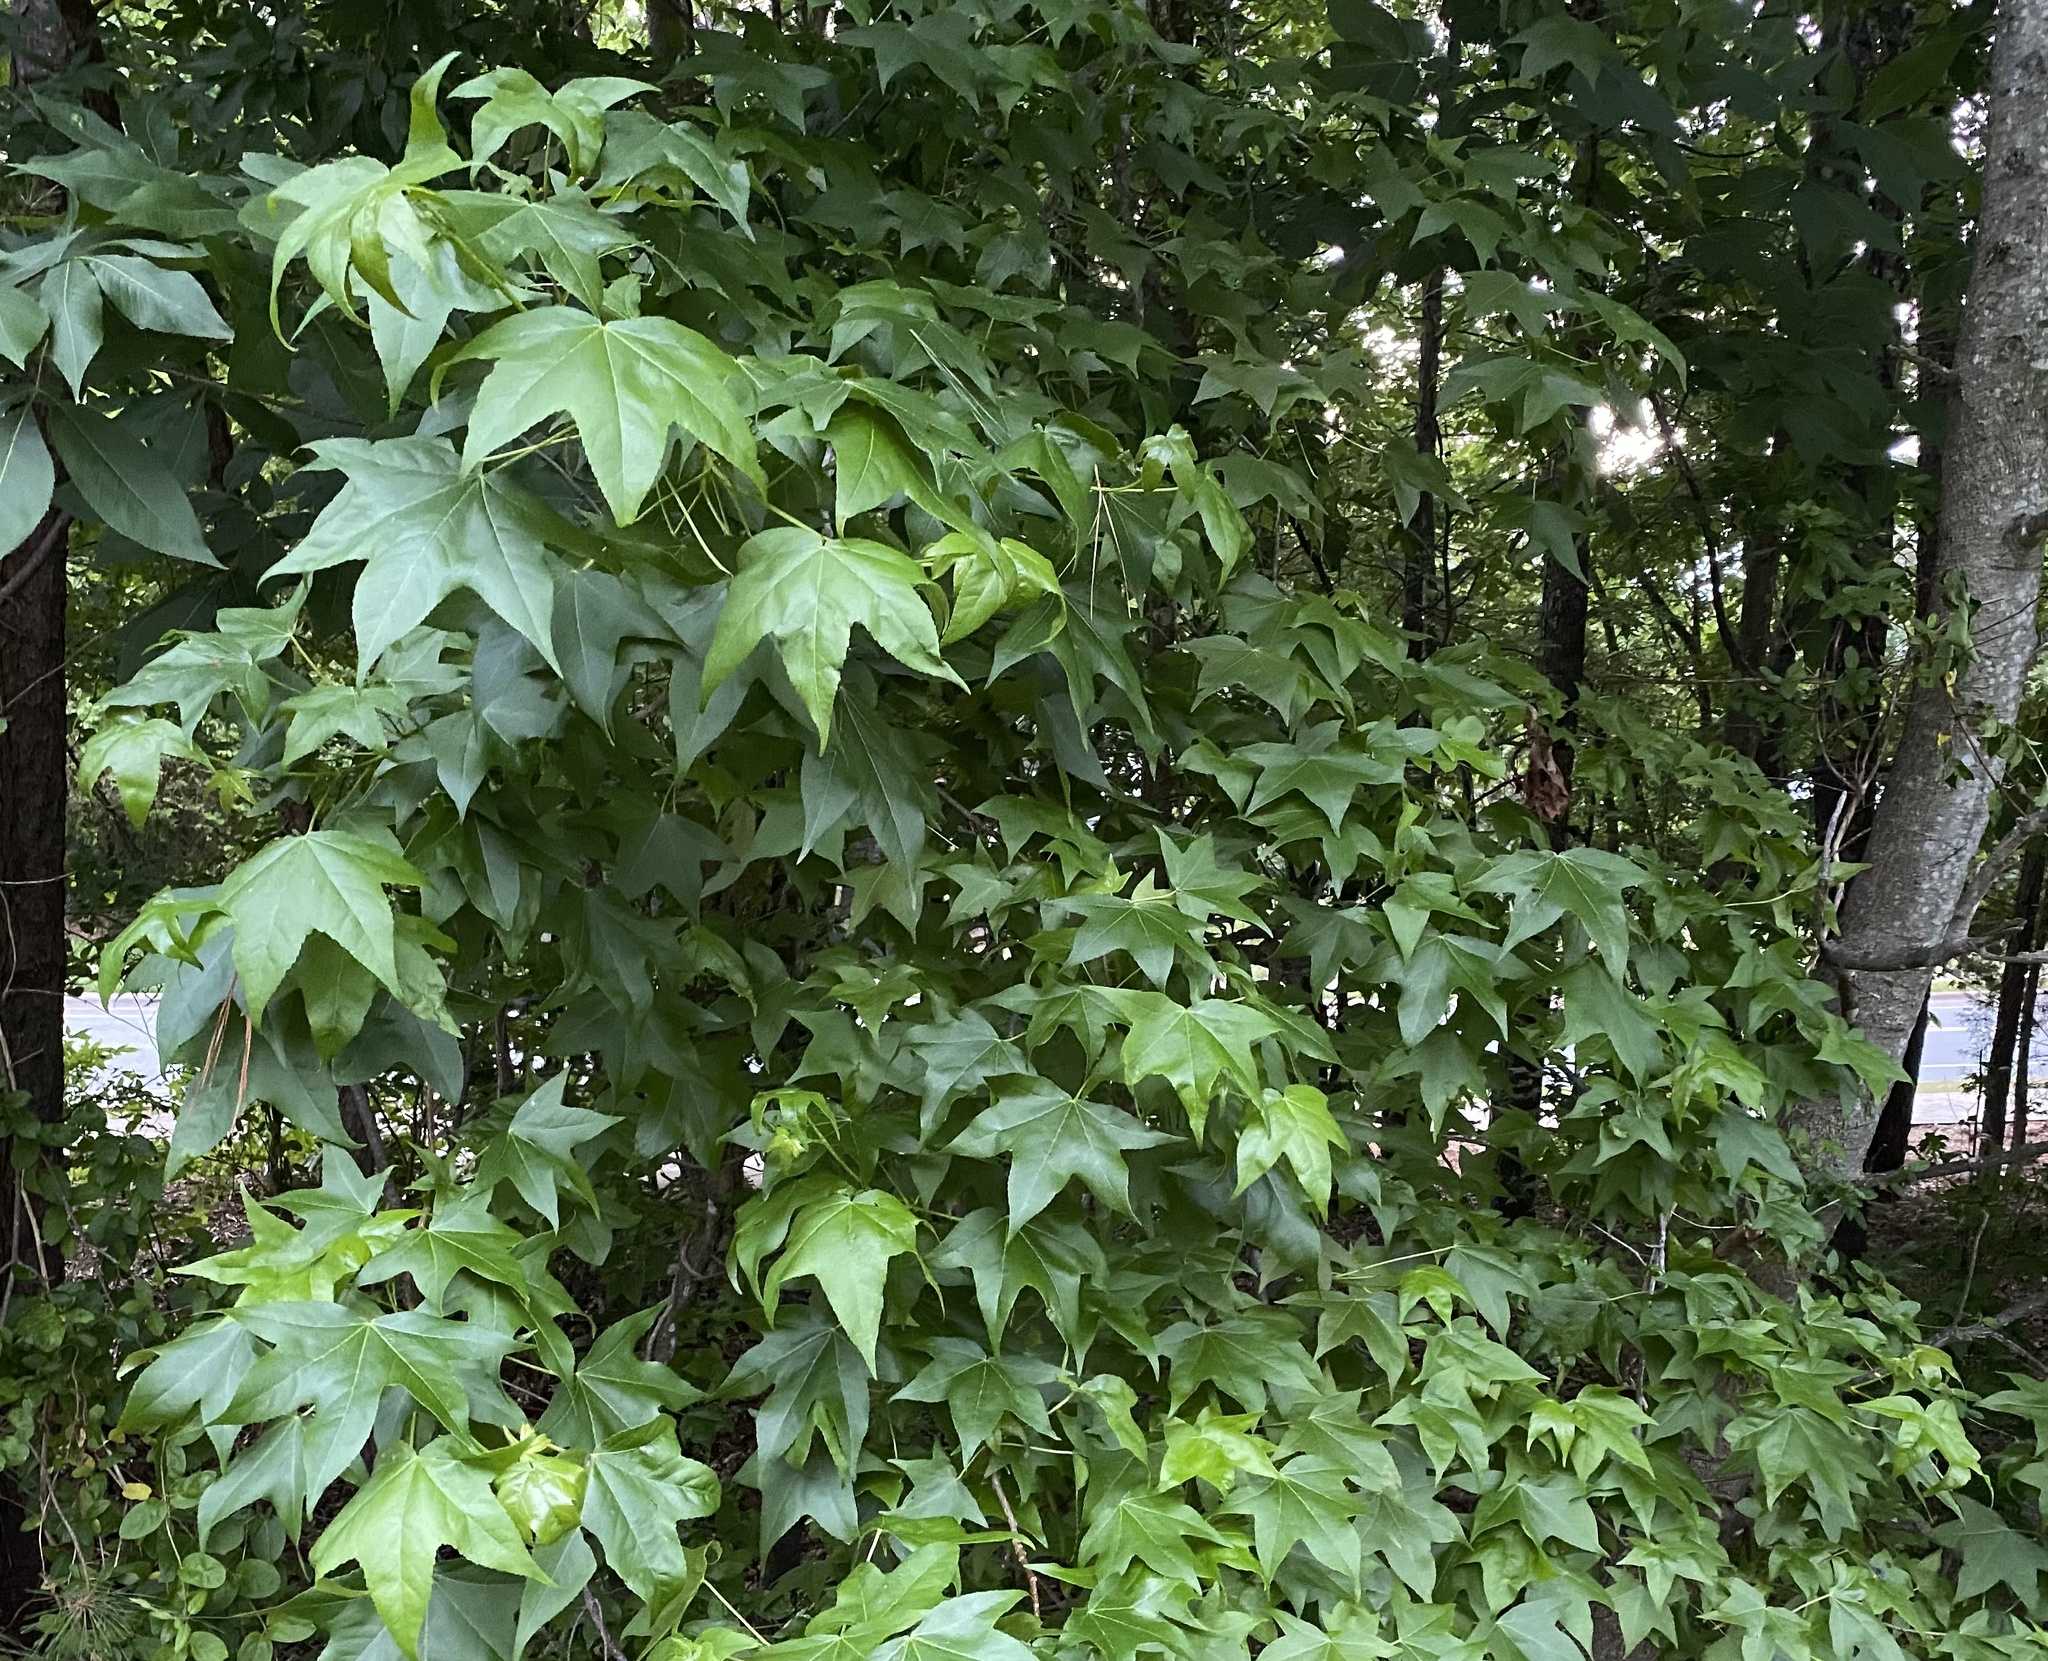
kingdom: Plantae
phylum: Tracheophyta
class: Magnoliopsida
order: Saxifragales
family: Altingiaceae
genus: Liquidambar
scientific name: Liquidambar styraciflua
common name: Sweet gum
